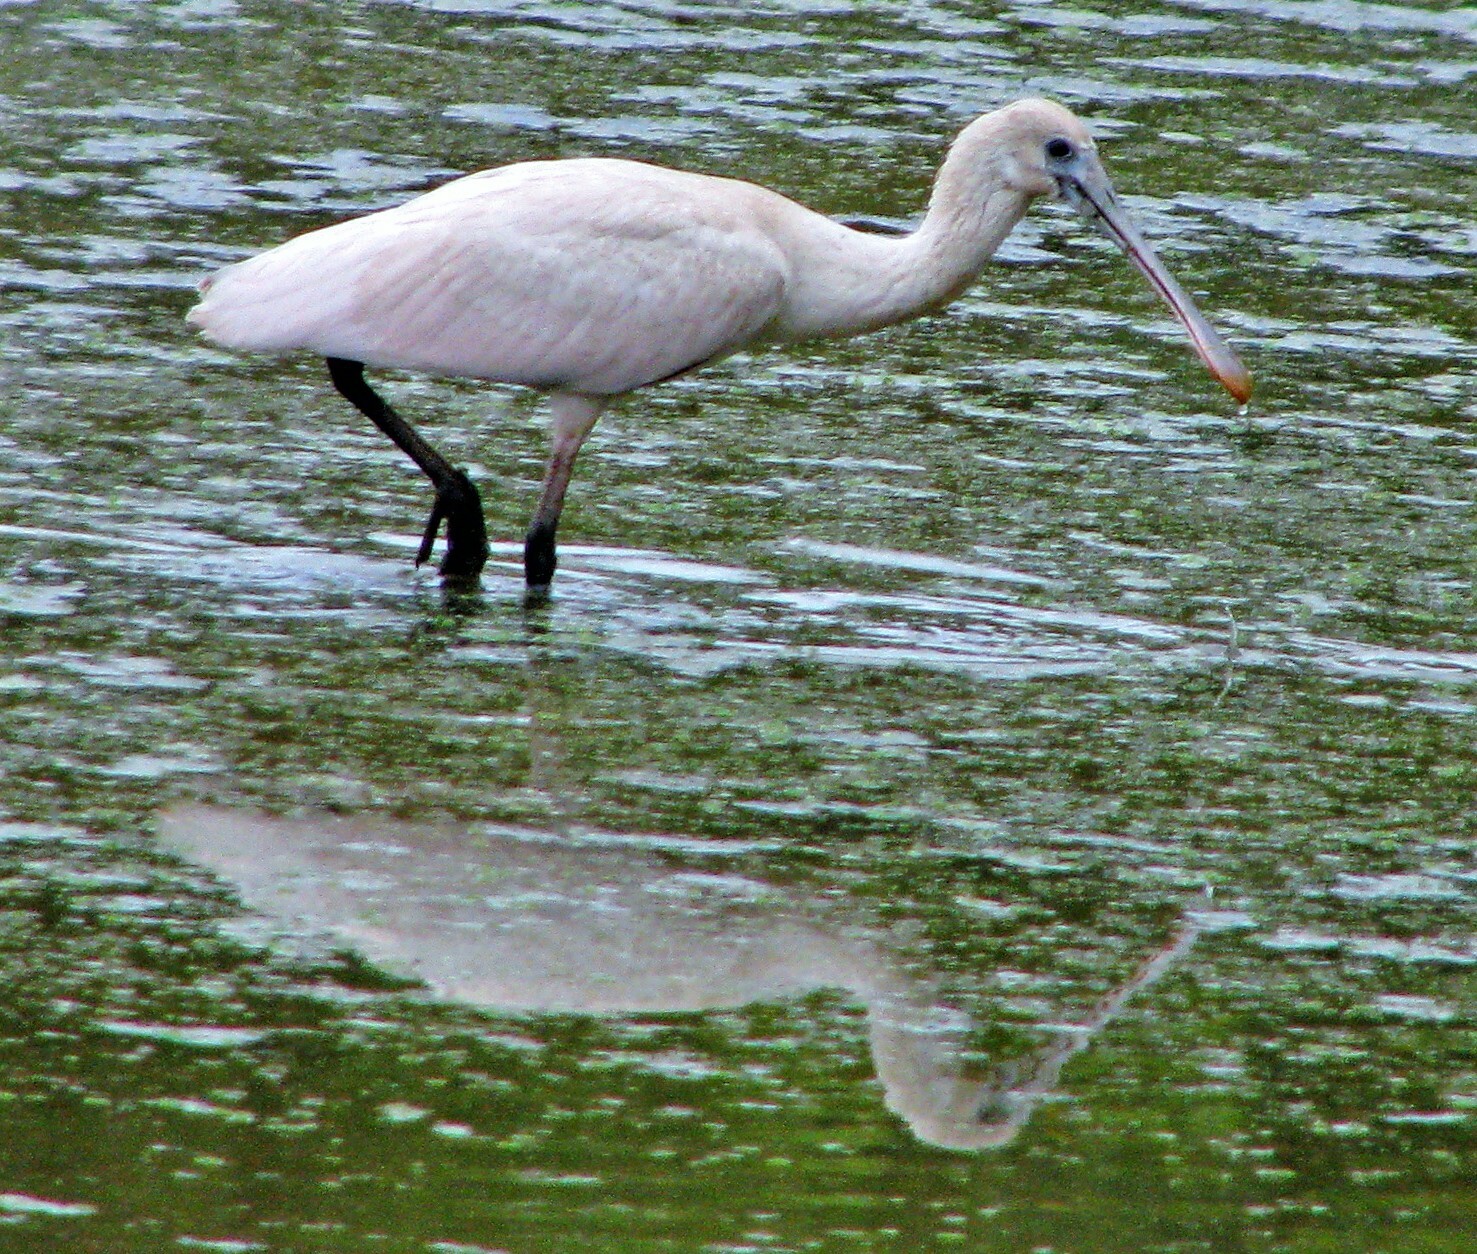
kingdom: Animalia
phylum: Chordata
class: Aves
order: Pelecaniformes
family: Threskiornithidae
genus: Platalea
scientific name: Platalea ajaja
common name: Roseate spoonbill
